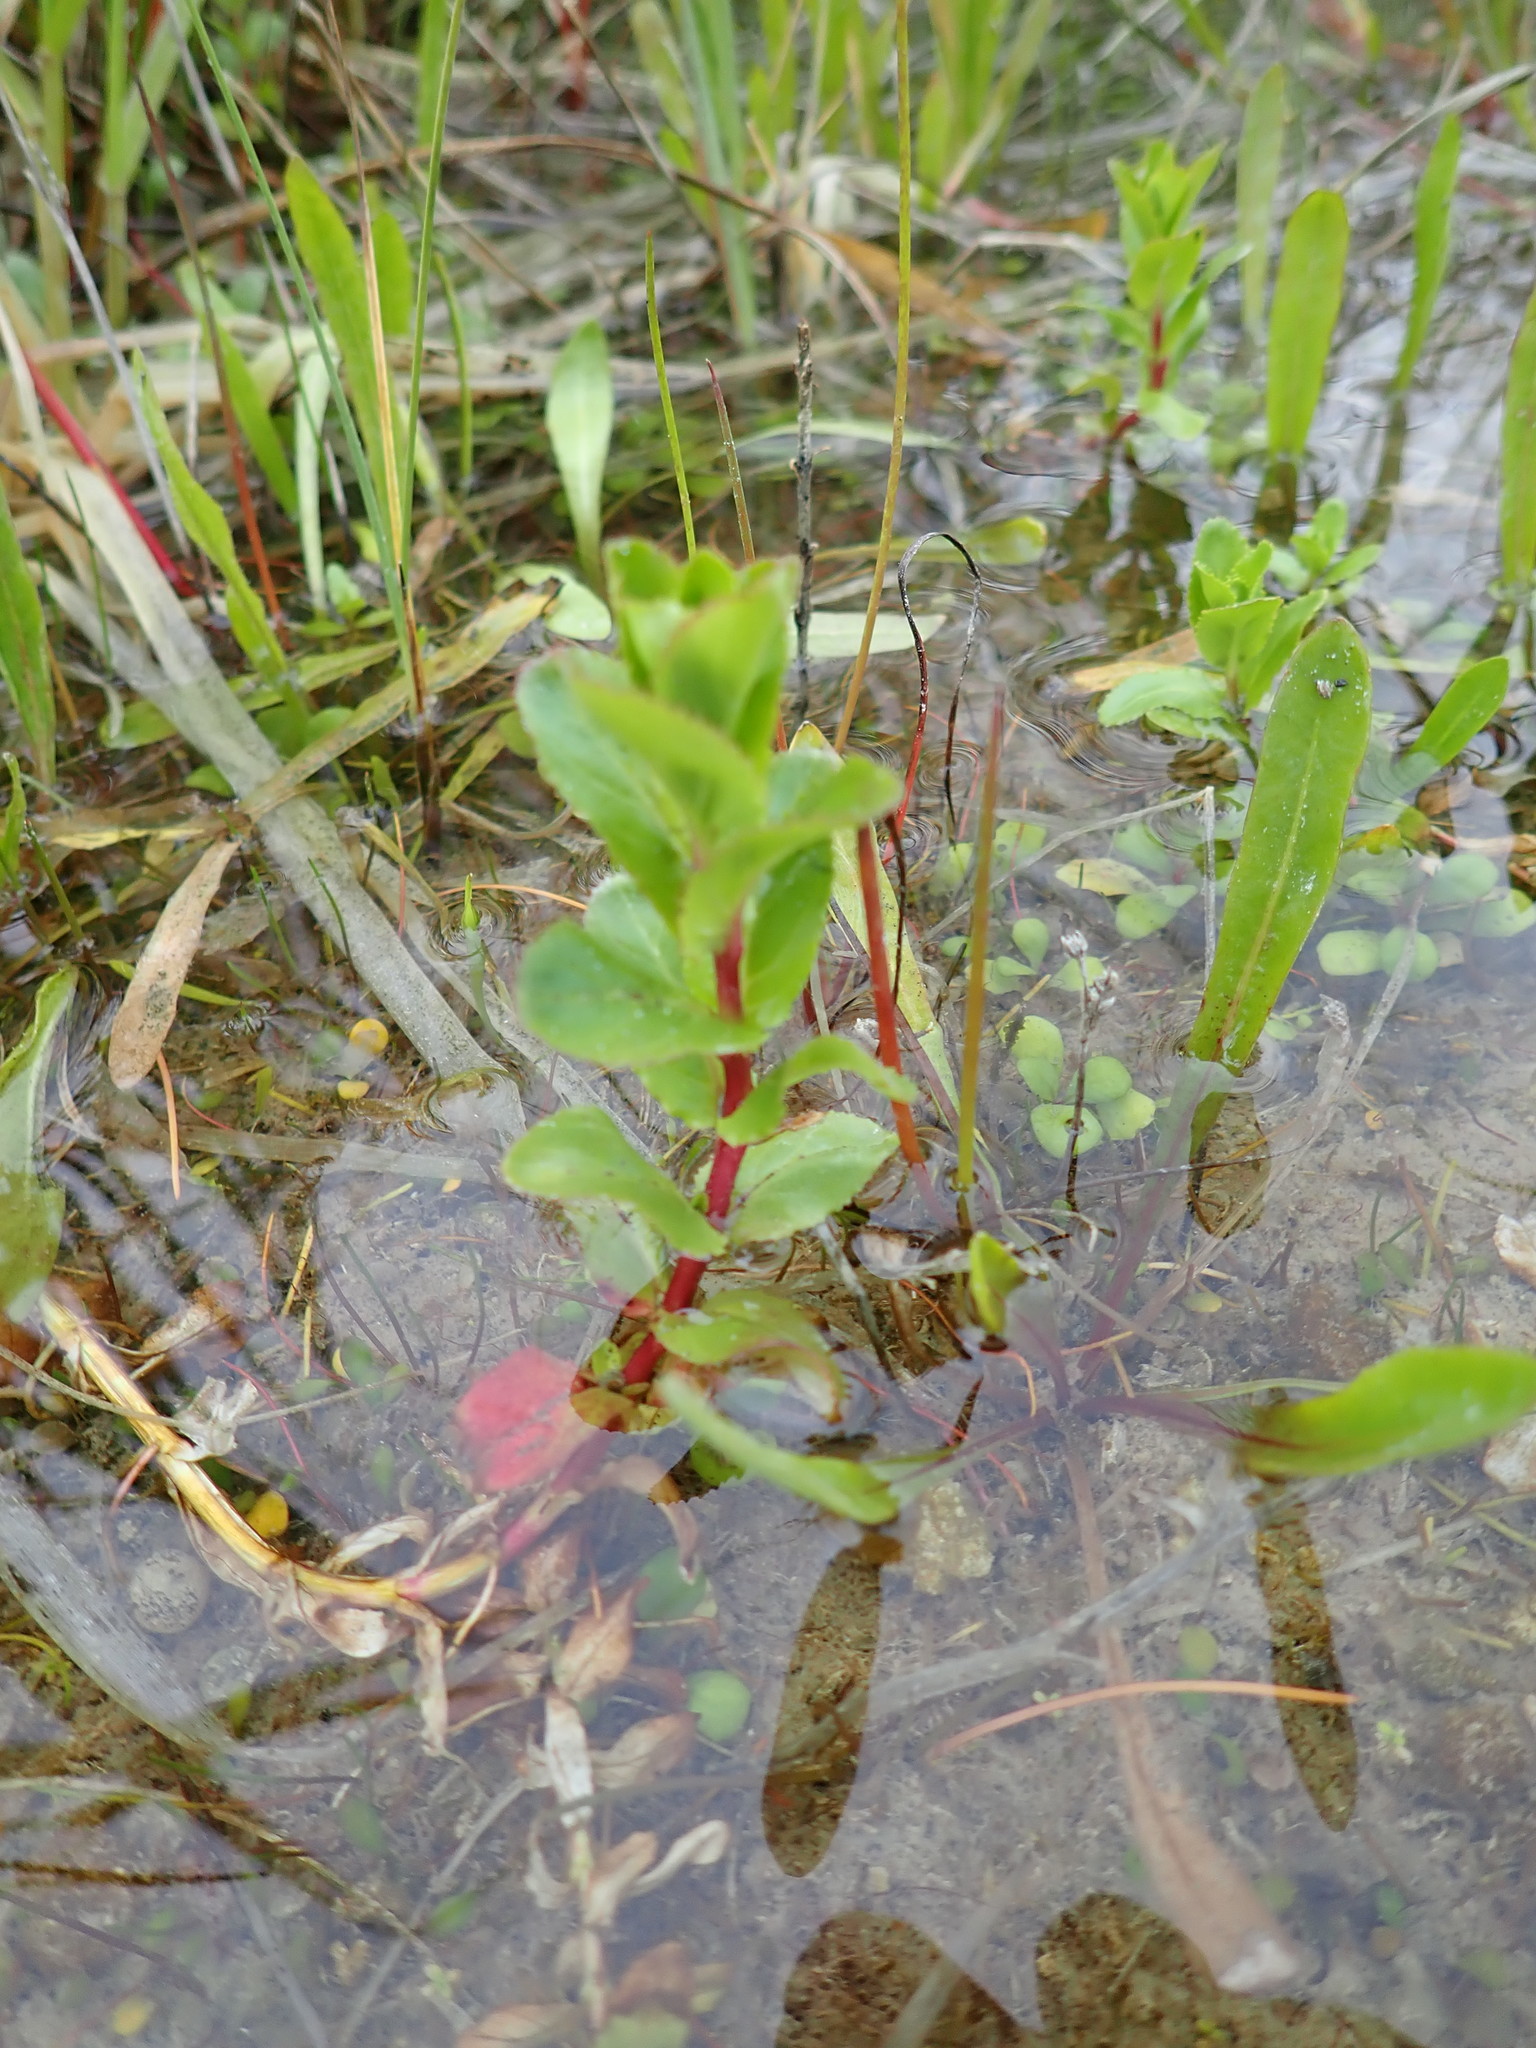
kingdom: Plantae
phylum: Tracheophyta
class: Magnoliopsida
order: Myrtales
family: Onagraceae
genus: Epilobium
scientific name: Epilobium billardiereanum
